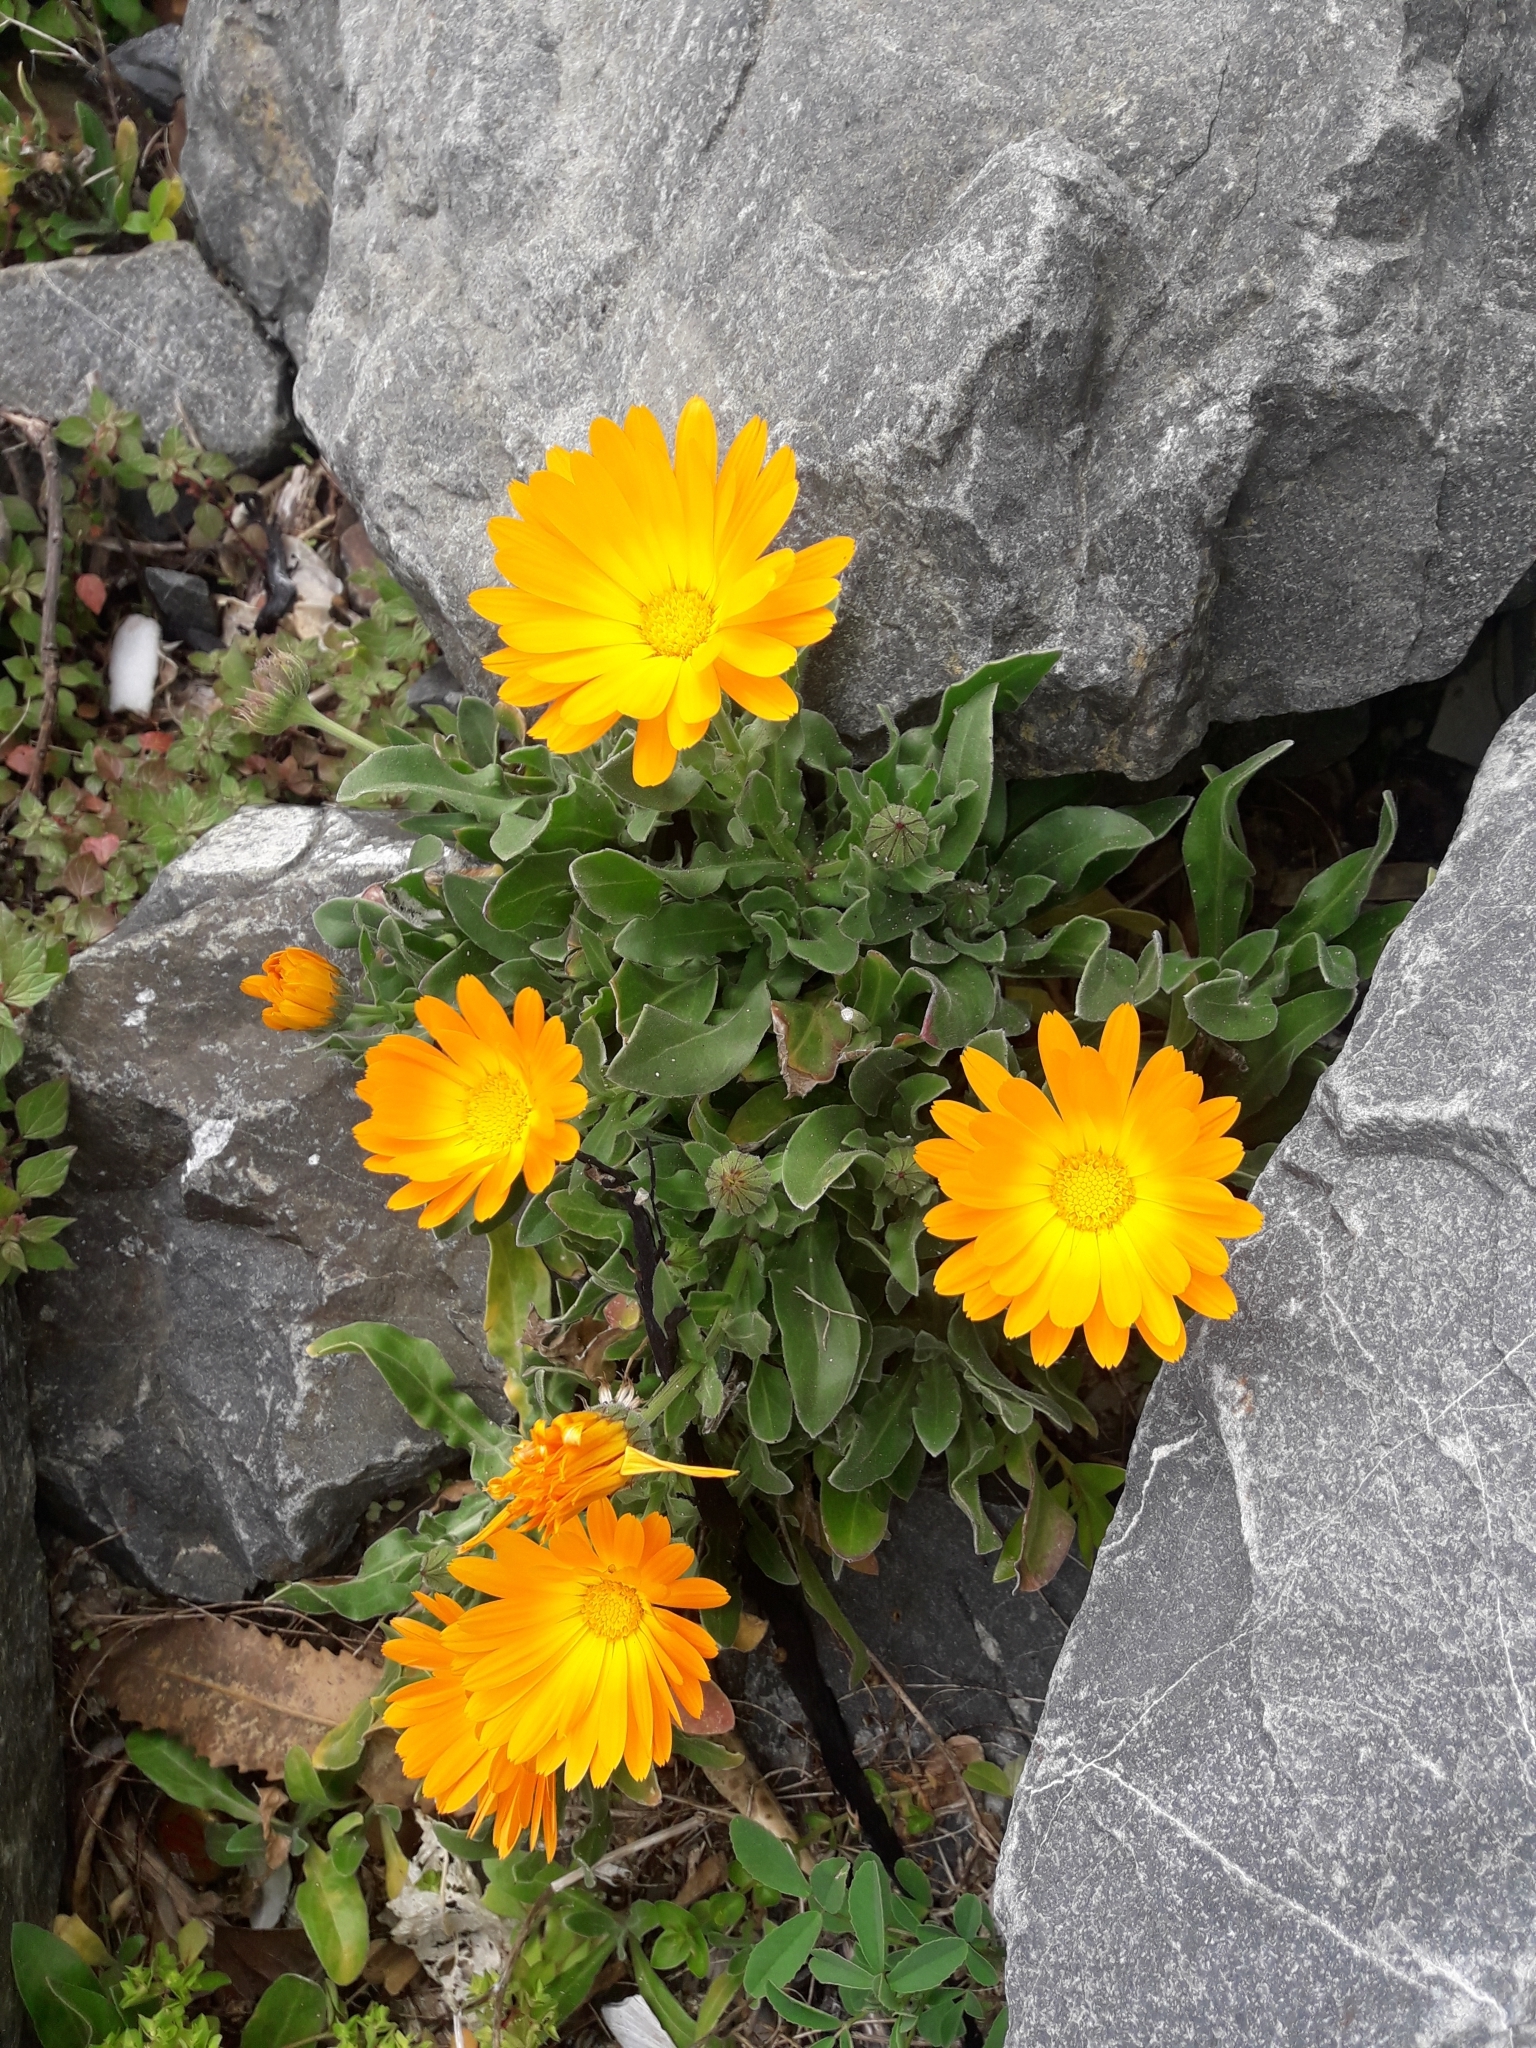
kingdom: Plantae
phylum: Tracheophyta
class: Magnoliopsida
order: Asterales
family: Asteraceae
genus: Calendula
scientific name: Calendula officinalis
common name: Pot marigold
